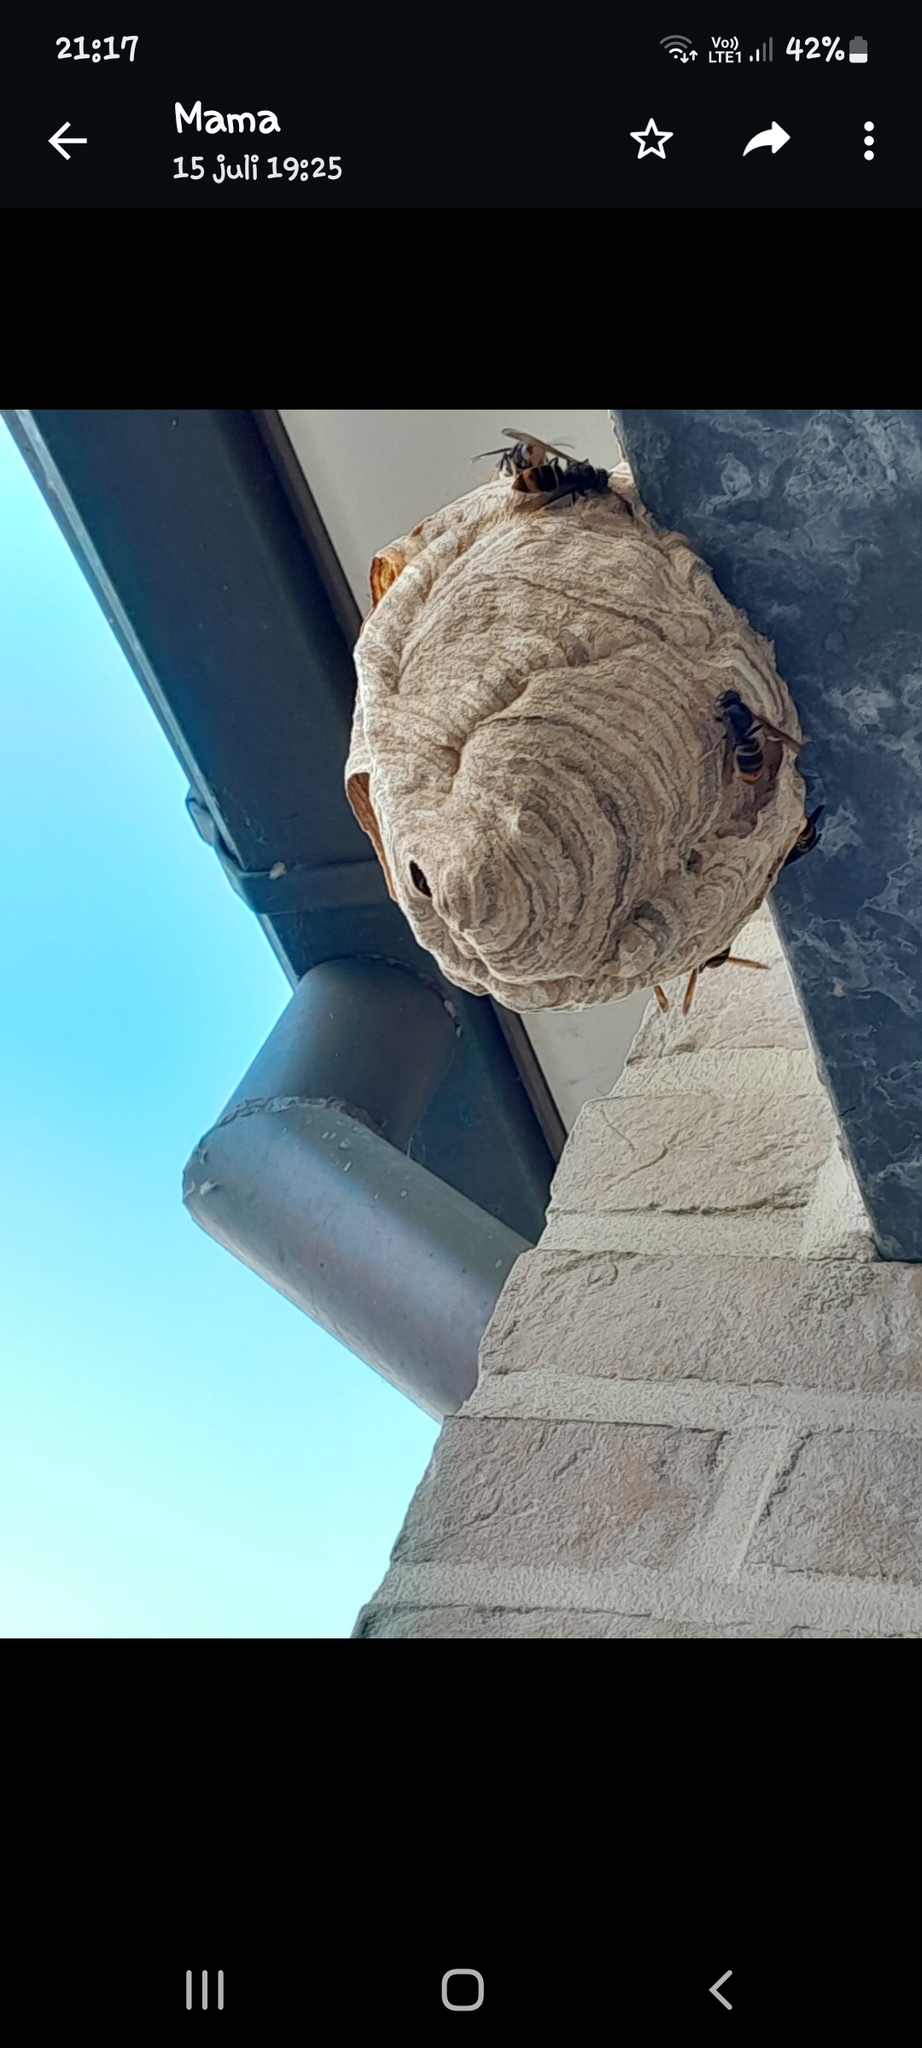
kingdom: Animalia
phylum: Arthropoda
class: Insecta
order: Hymenoptera
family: Vespidae
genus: Vespa
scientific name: Vespa velutina
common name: Asian hornet
